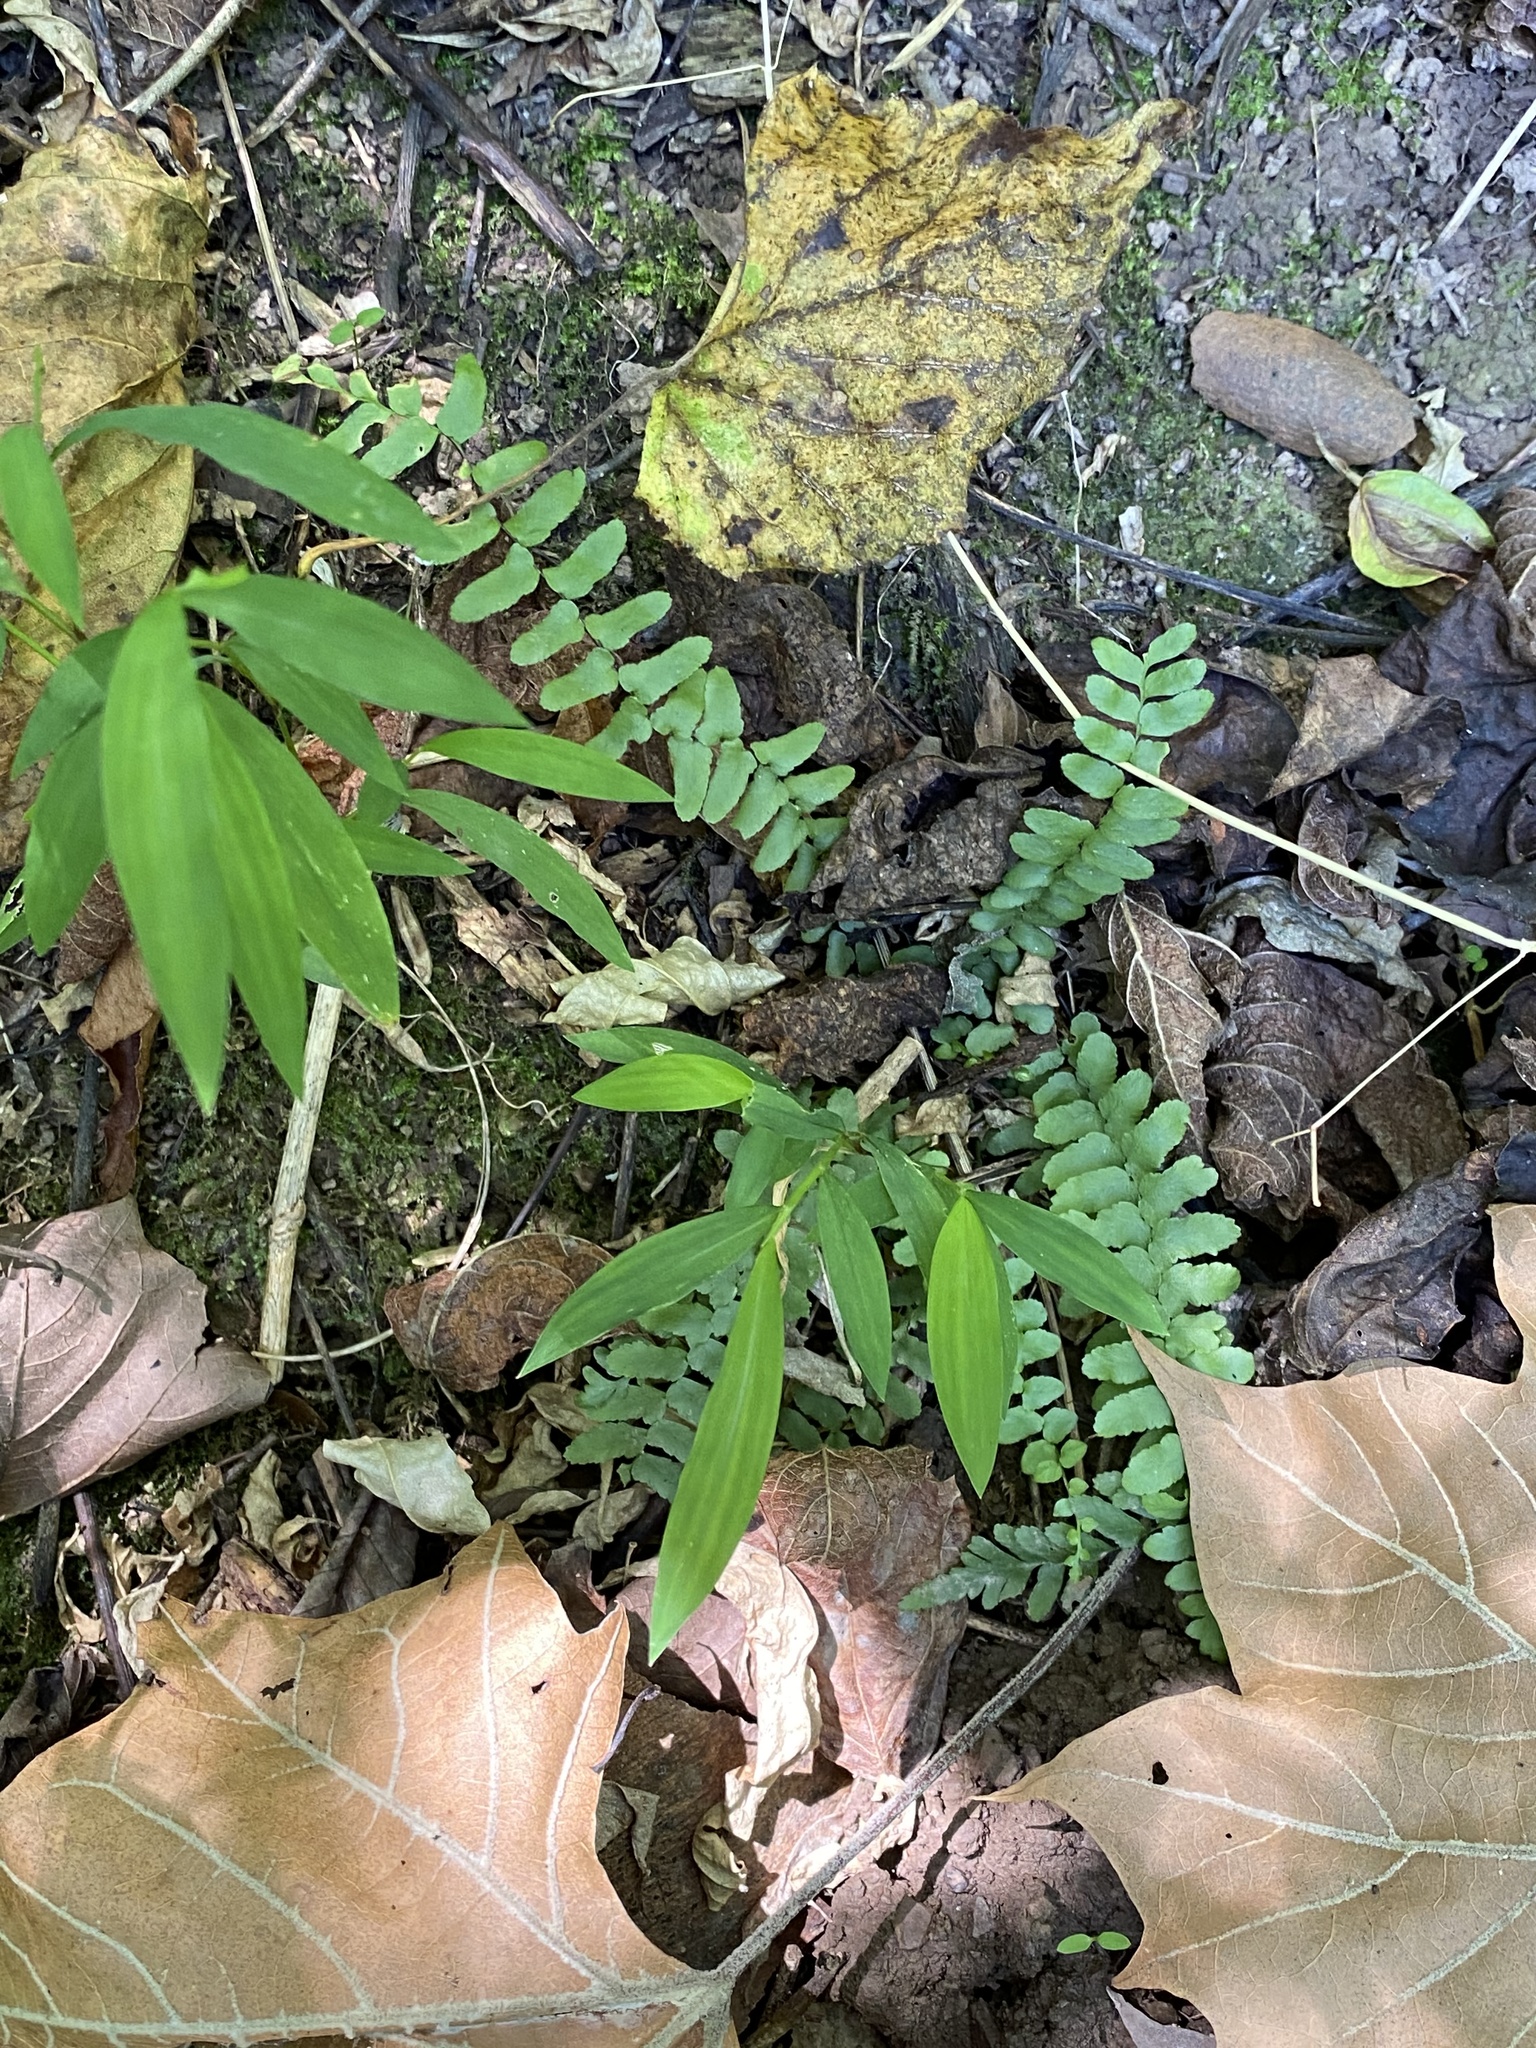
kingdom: Plantae
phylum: Tracheophyta
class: Polypodiopsida
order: Polypodiales
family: Aspleniaceae
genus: Asplenium
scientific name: Asplenium platyneuron
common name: Ebony spleenwort
